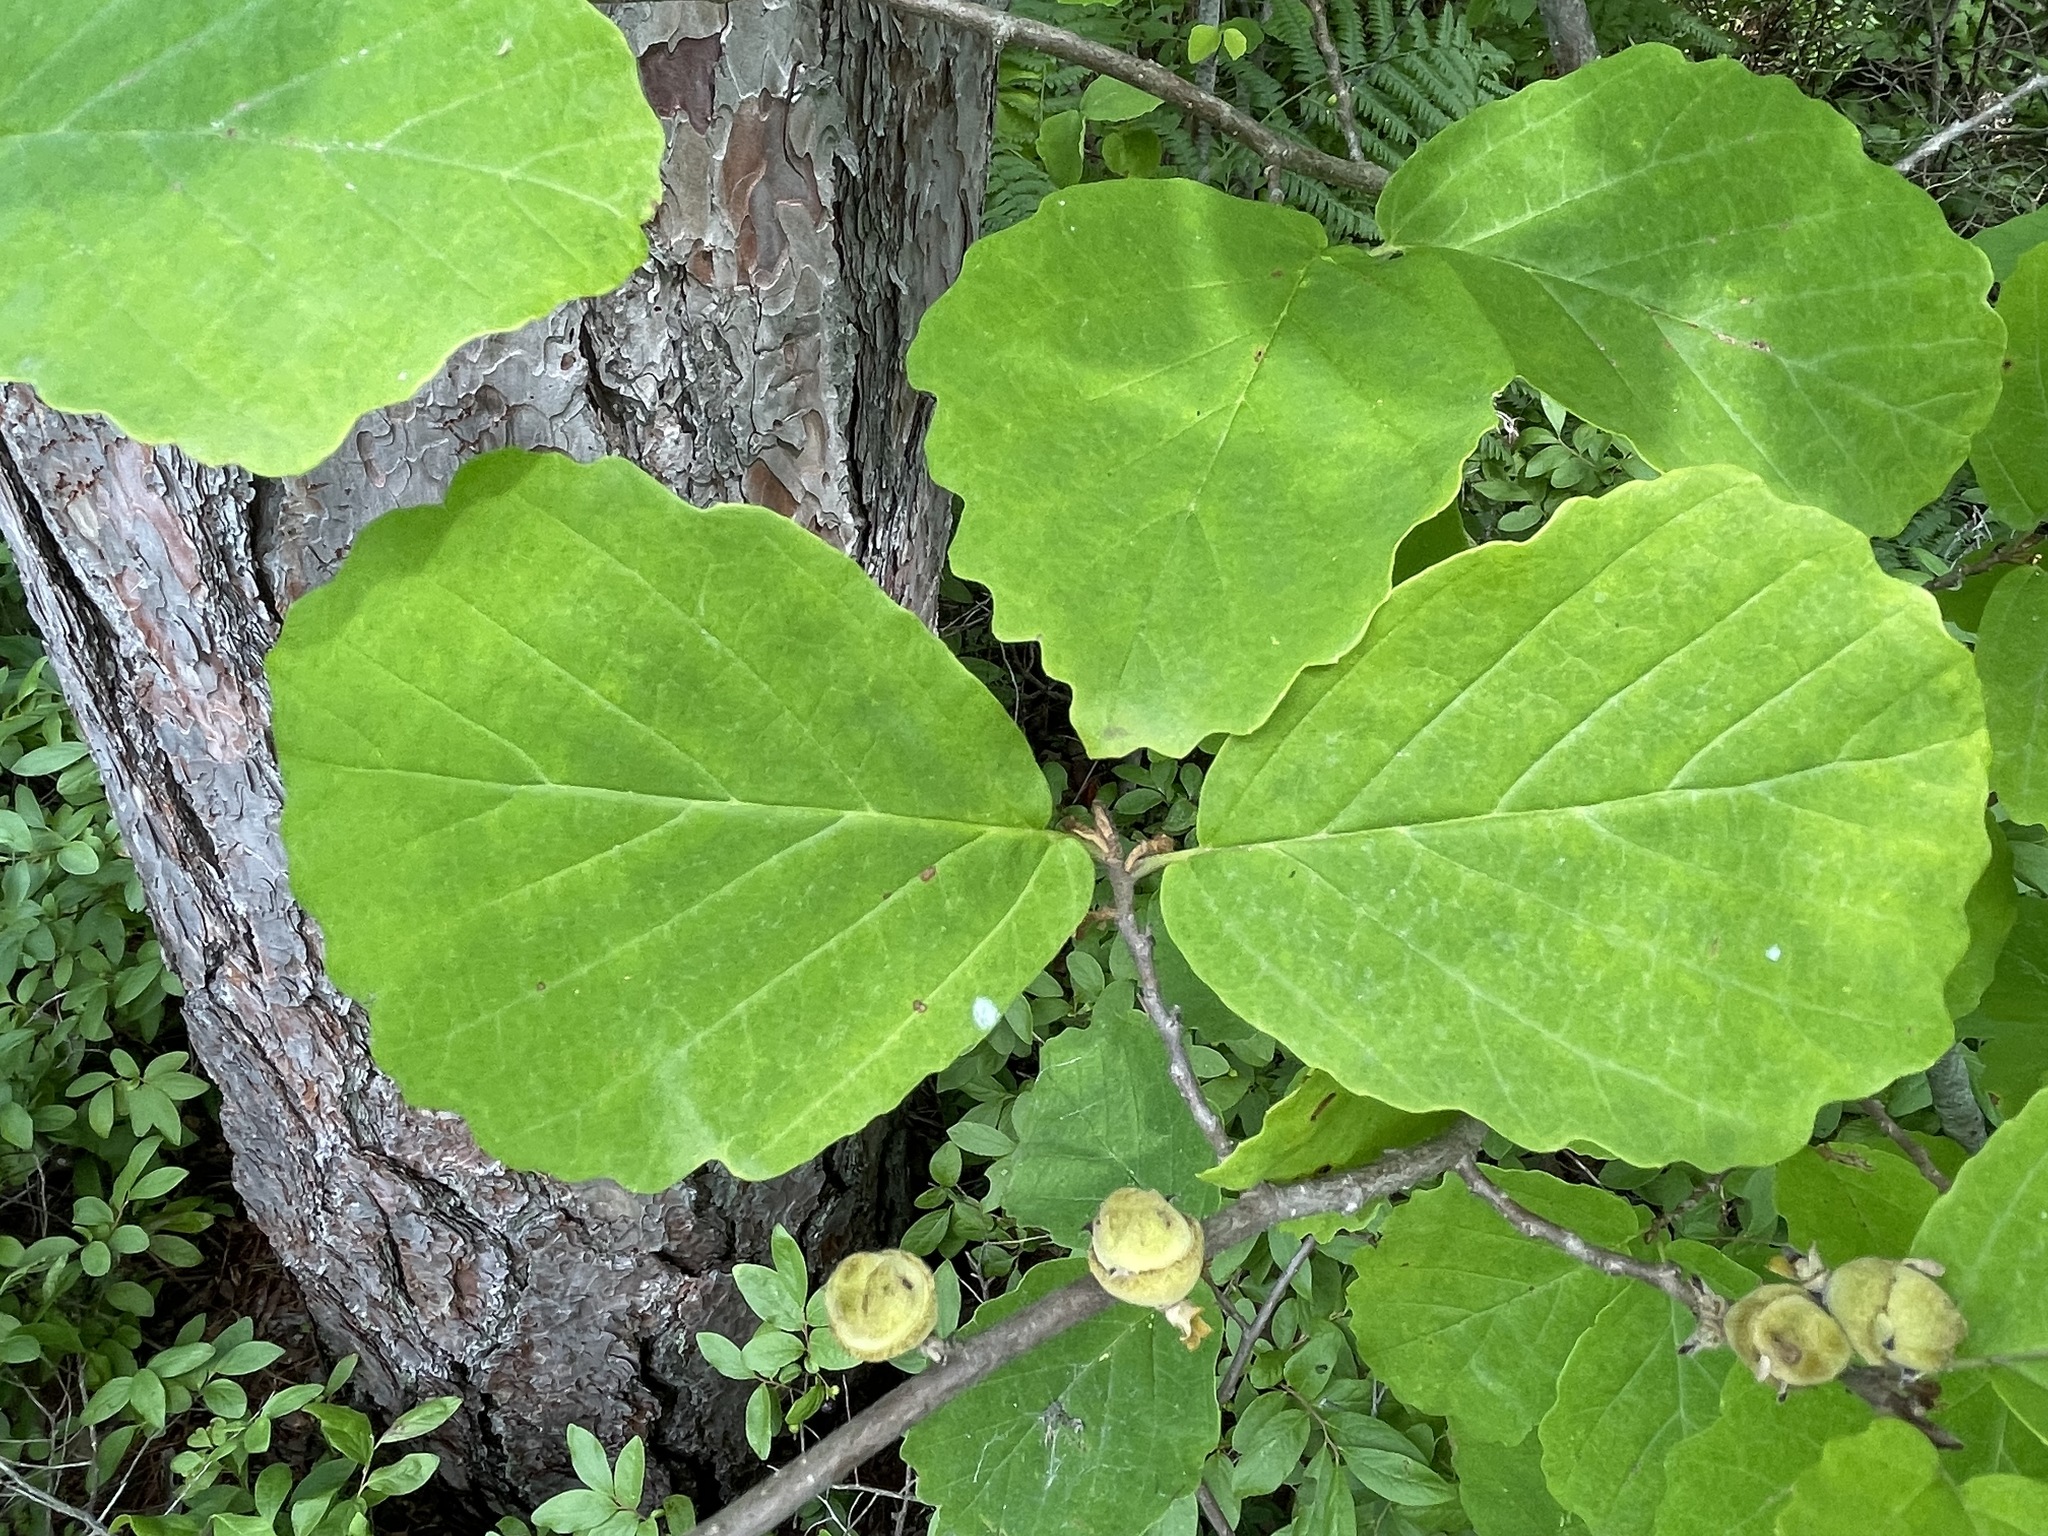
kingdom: Plantae
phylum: Tracheophyta
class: Magnoliopsida
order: Saxifragales
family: Hamamelidaceae
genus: Hamamelis
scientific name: Hamamelis virginiana
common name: Witch-hazel
